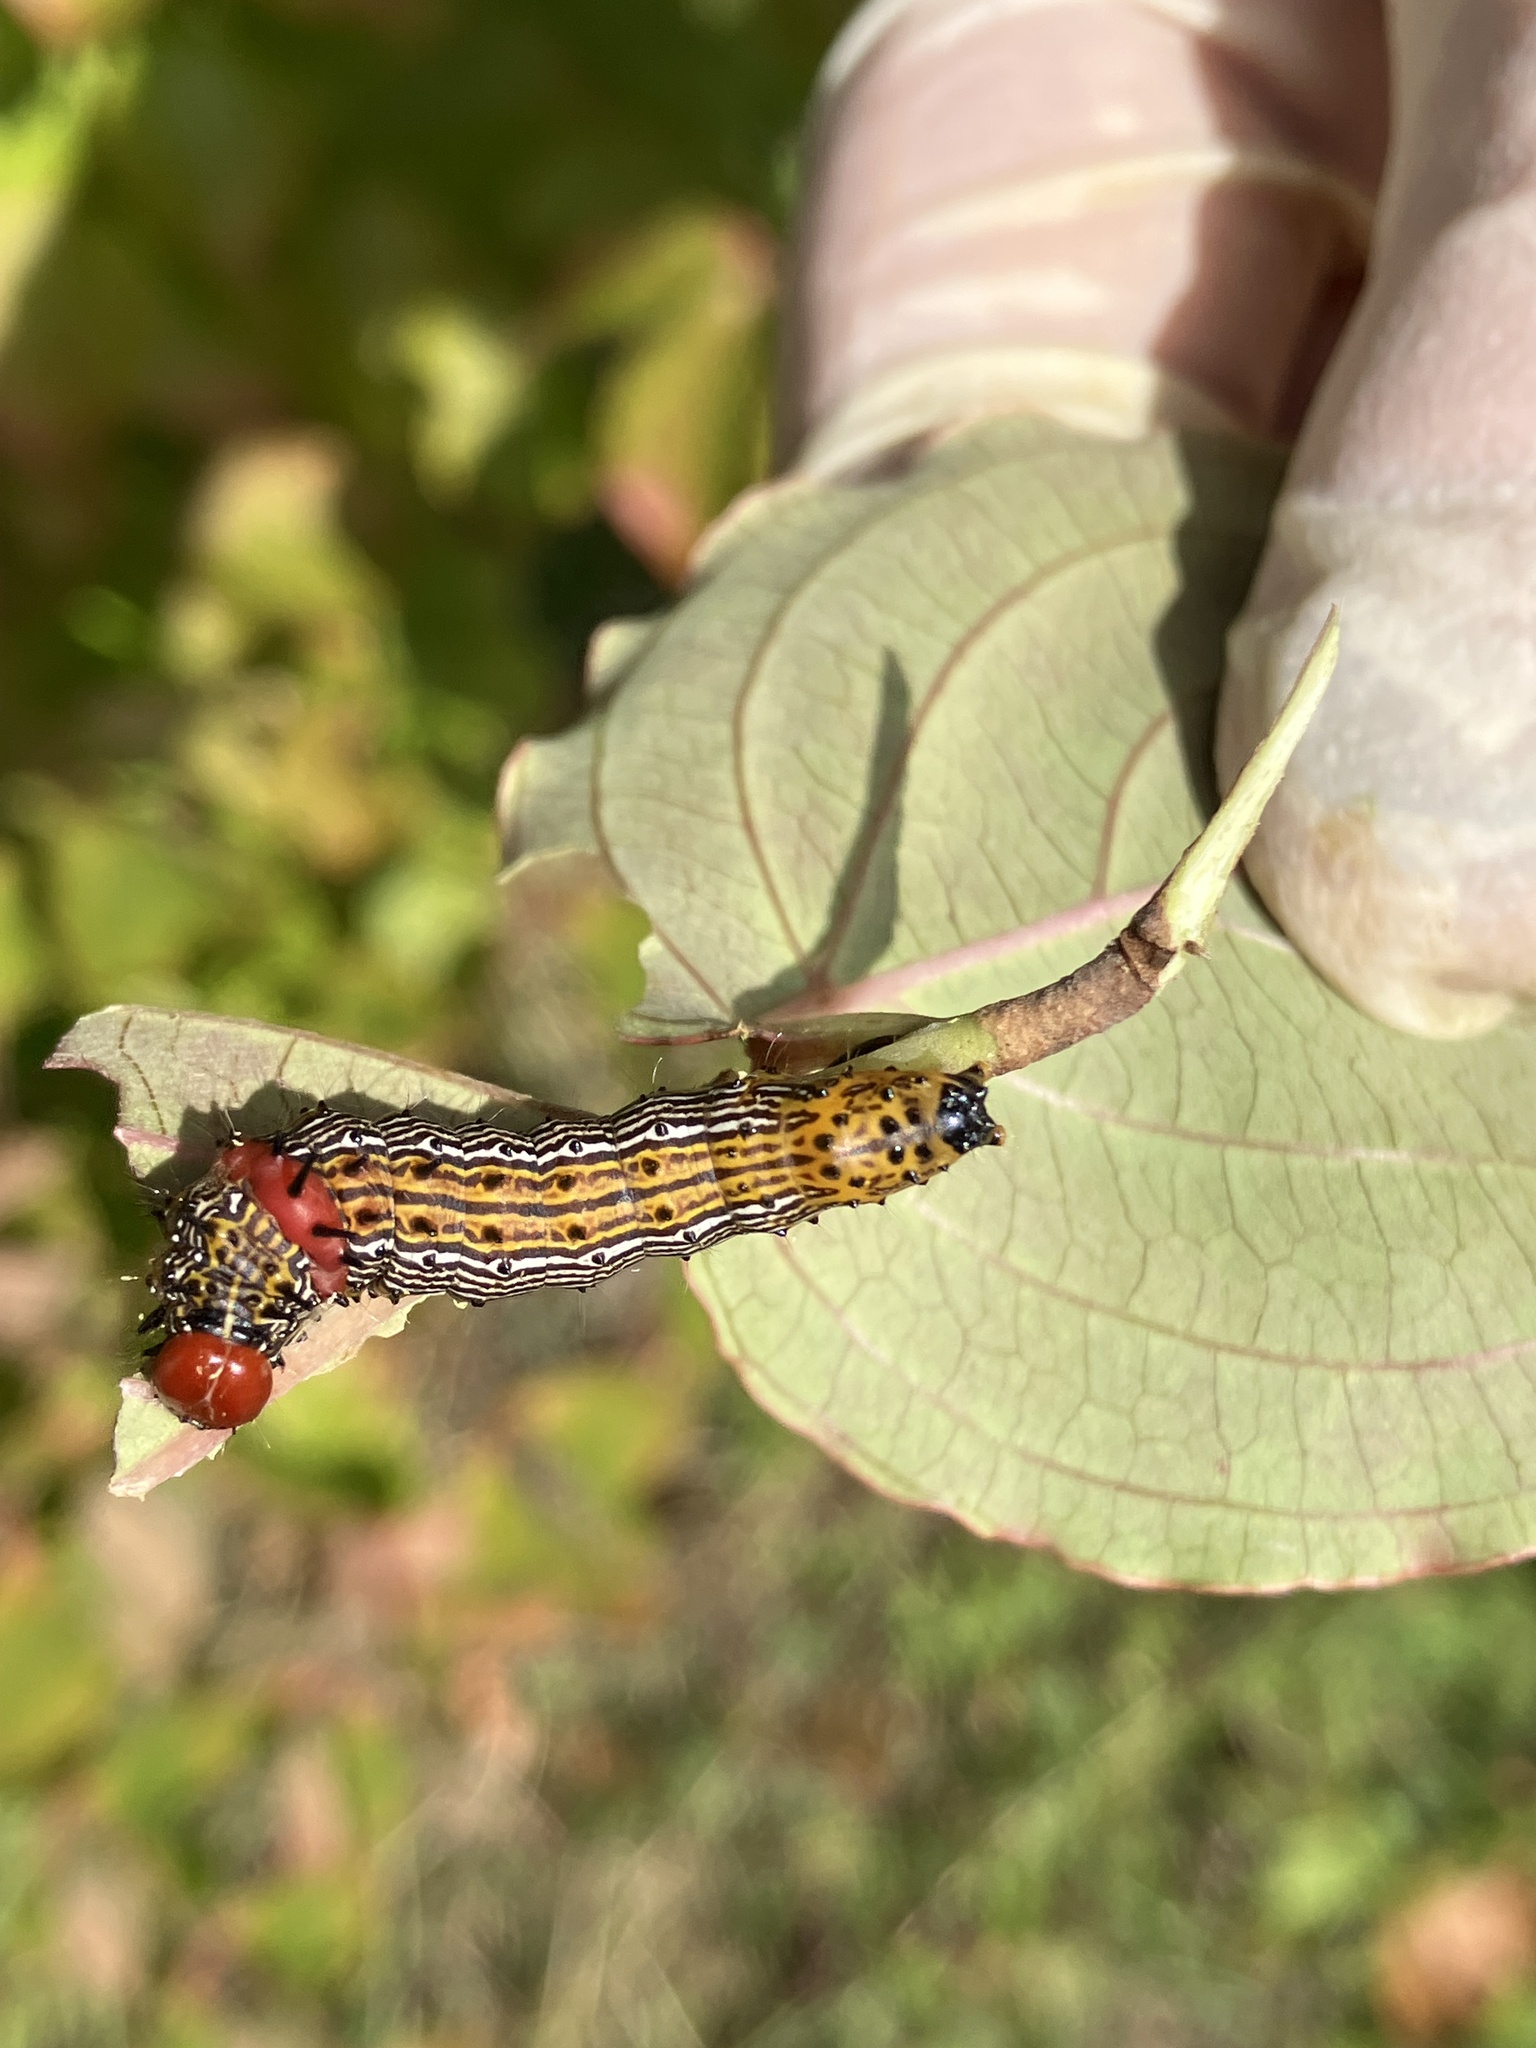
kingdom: Animalia
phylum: Arthropoda
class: Insecta
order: Lepidoptera
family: Notodontidae
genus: Schizura
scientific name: Schizura
